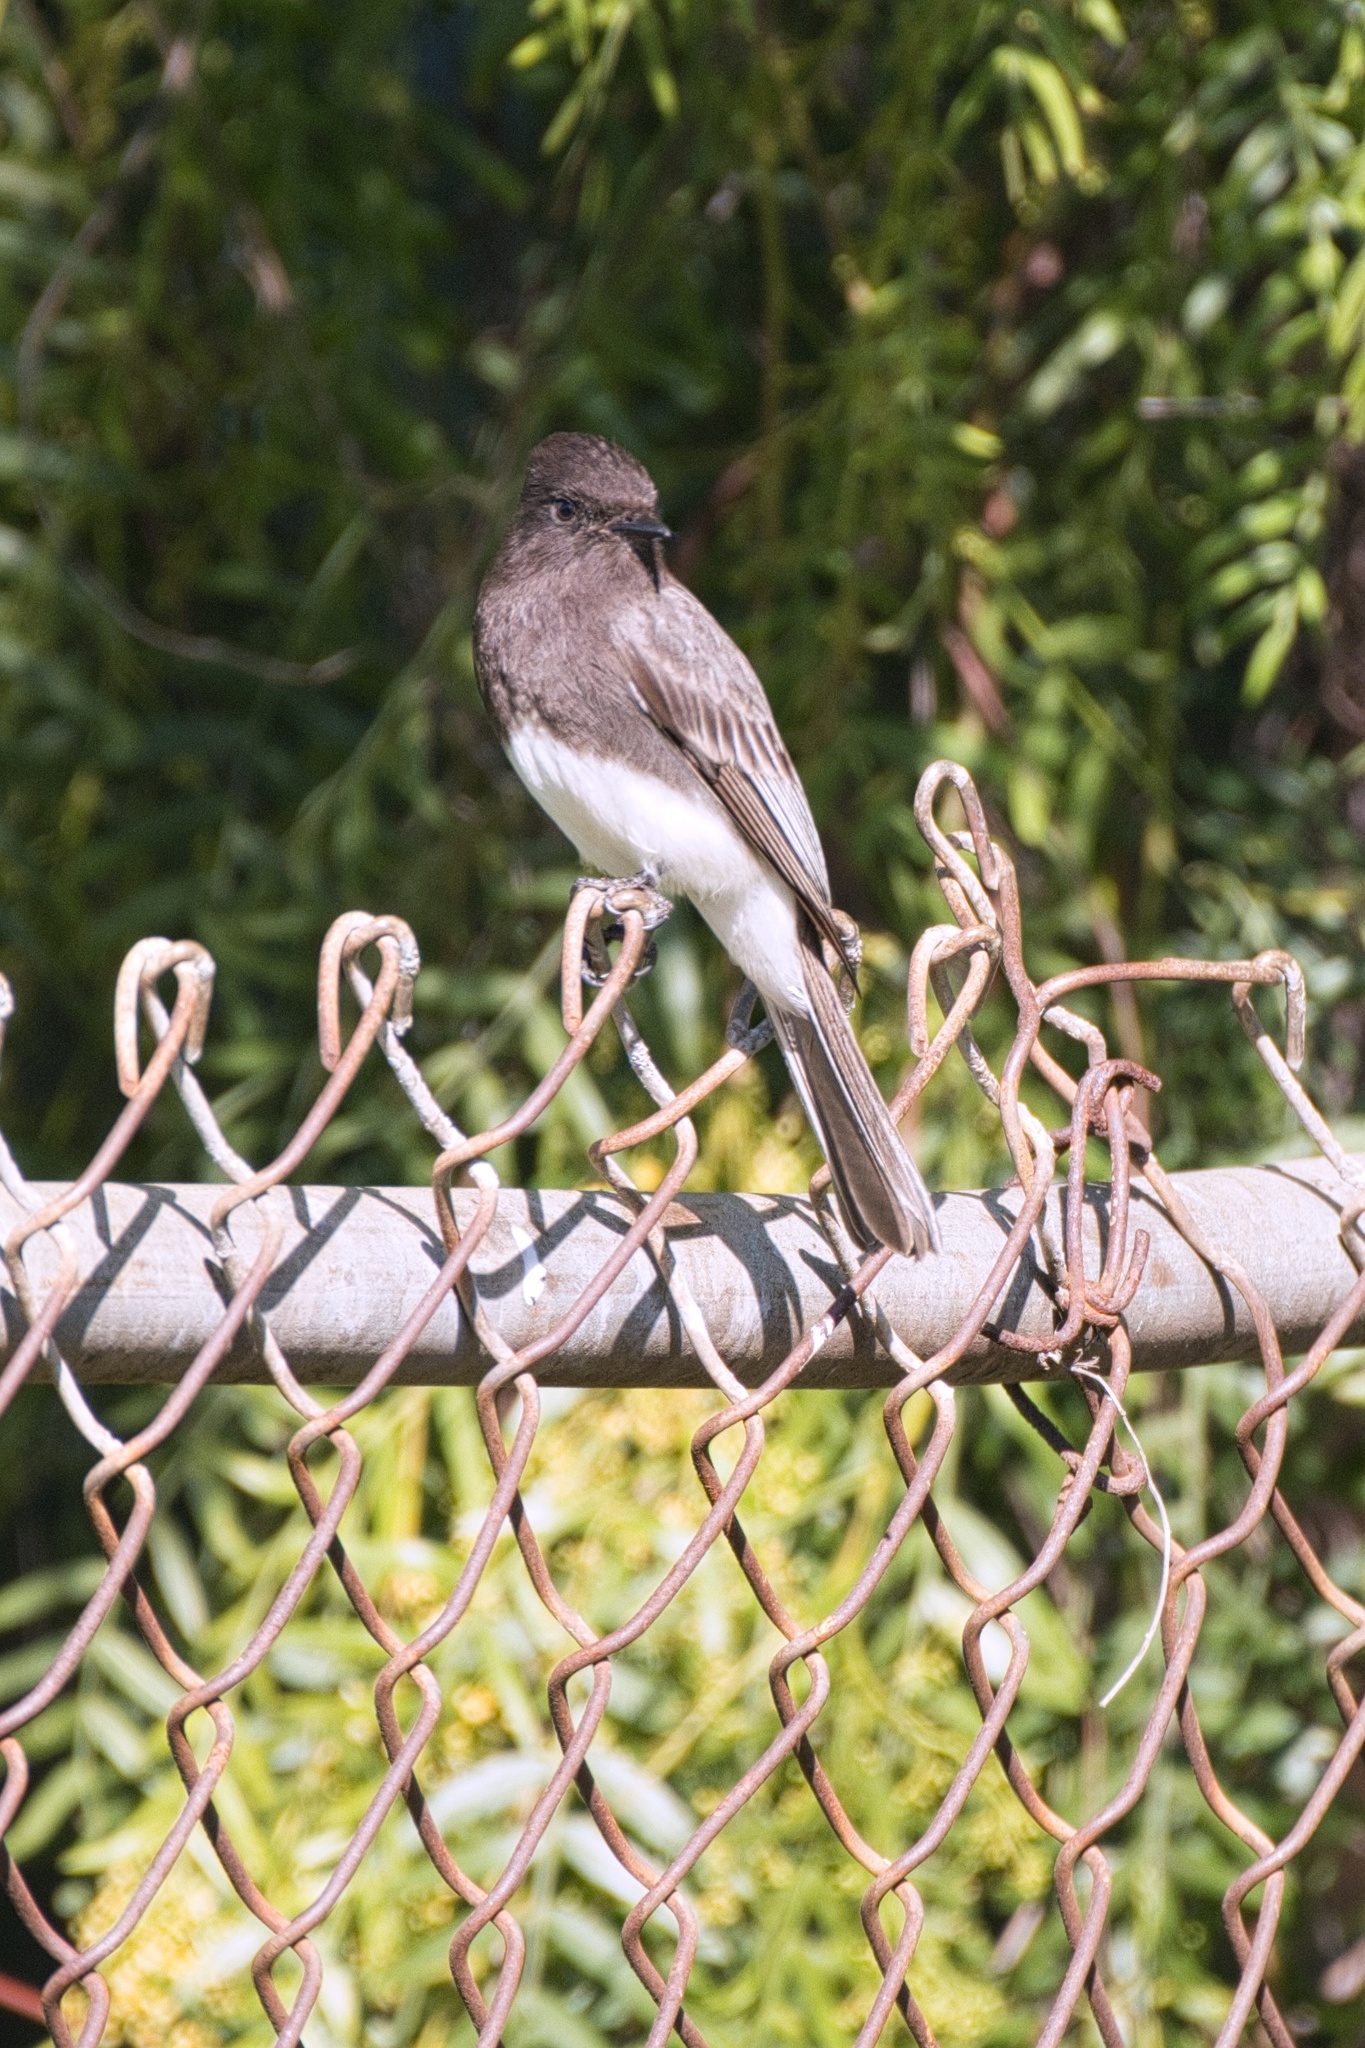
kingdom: Animalia
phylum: Chordata
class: Aves
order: Passeriformes
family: Tyrannidae
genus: Sayornis
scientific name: Sayornis nigricans
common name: Black phoebe
